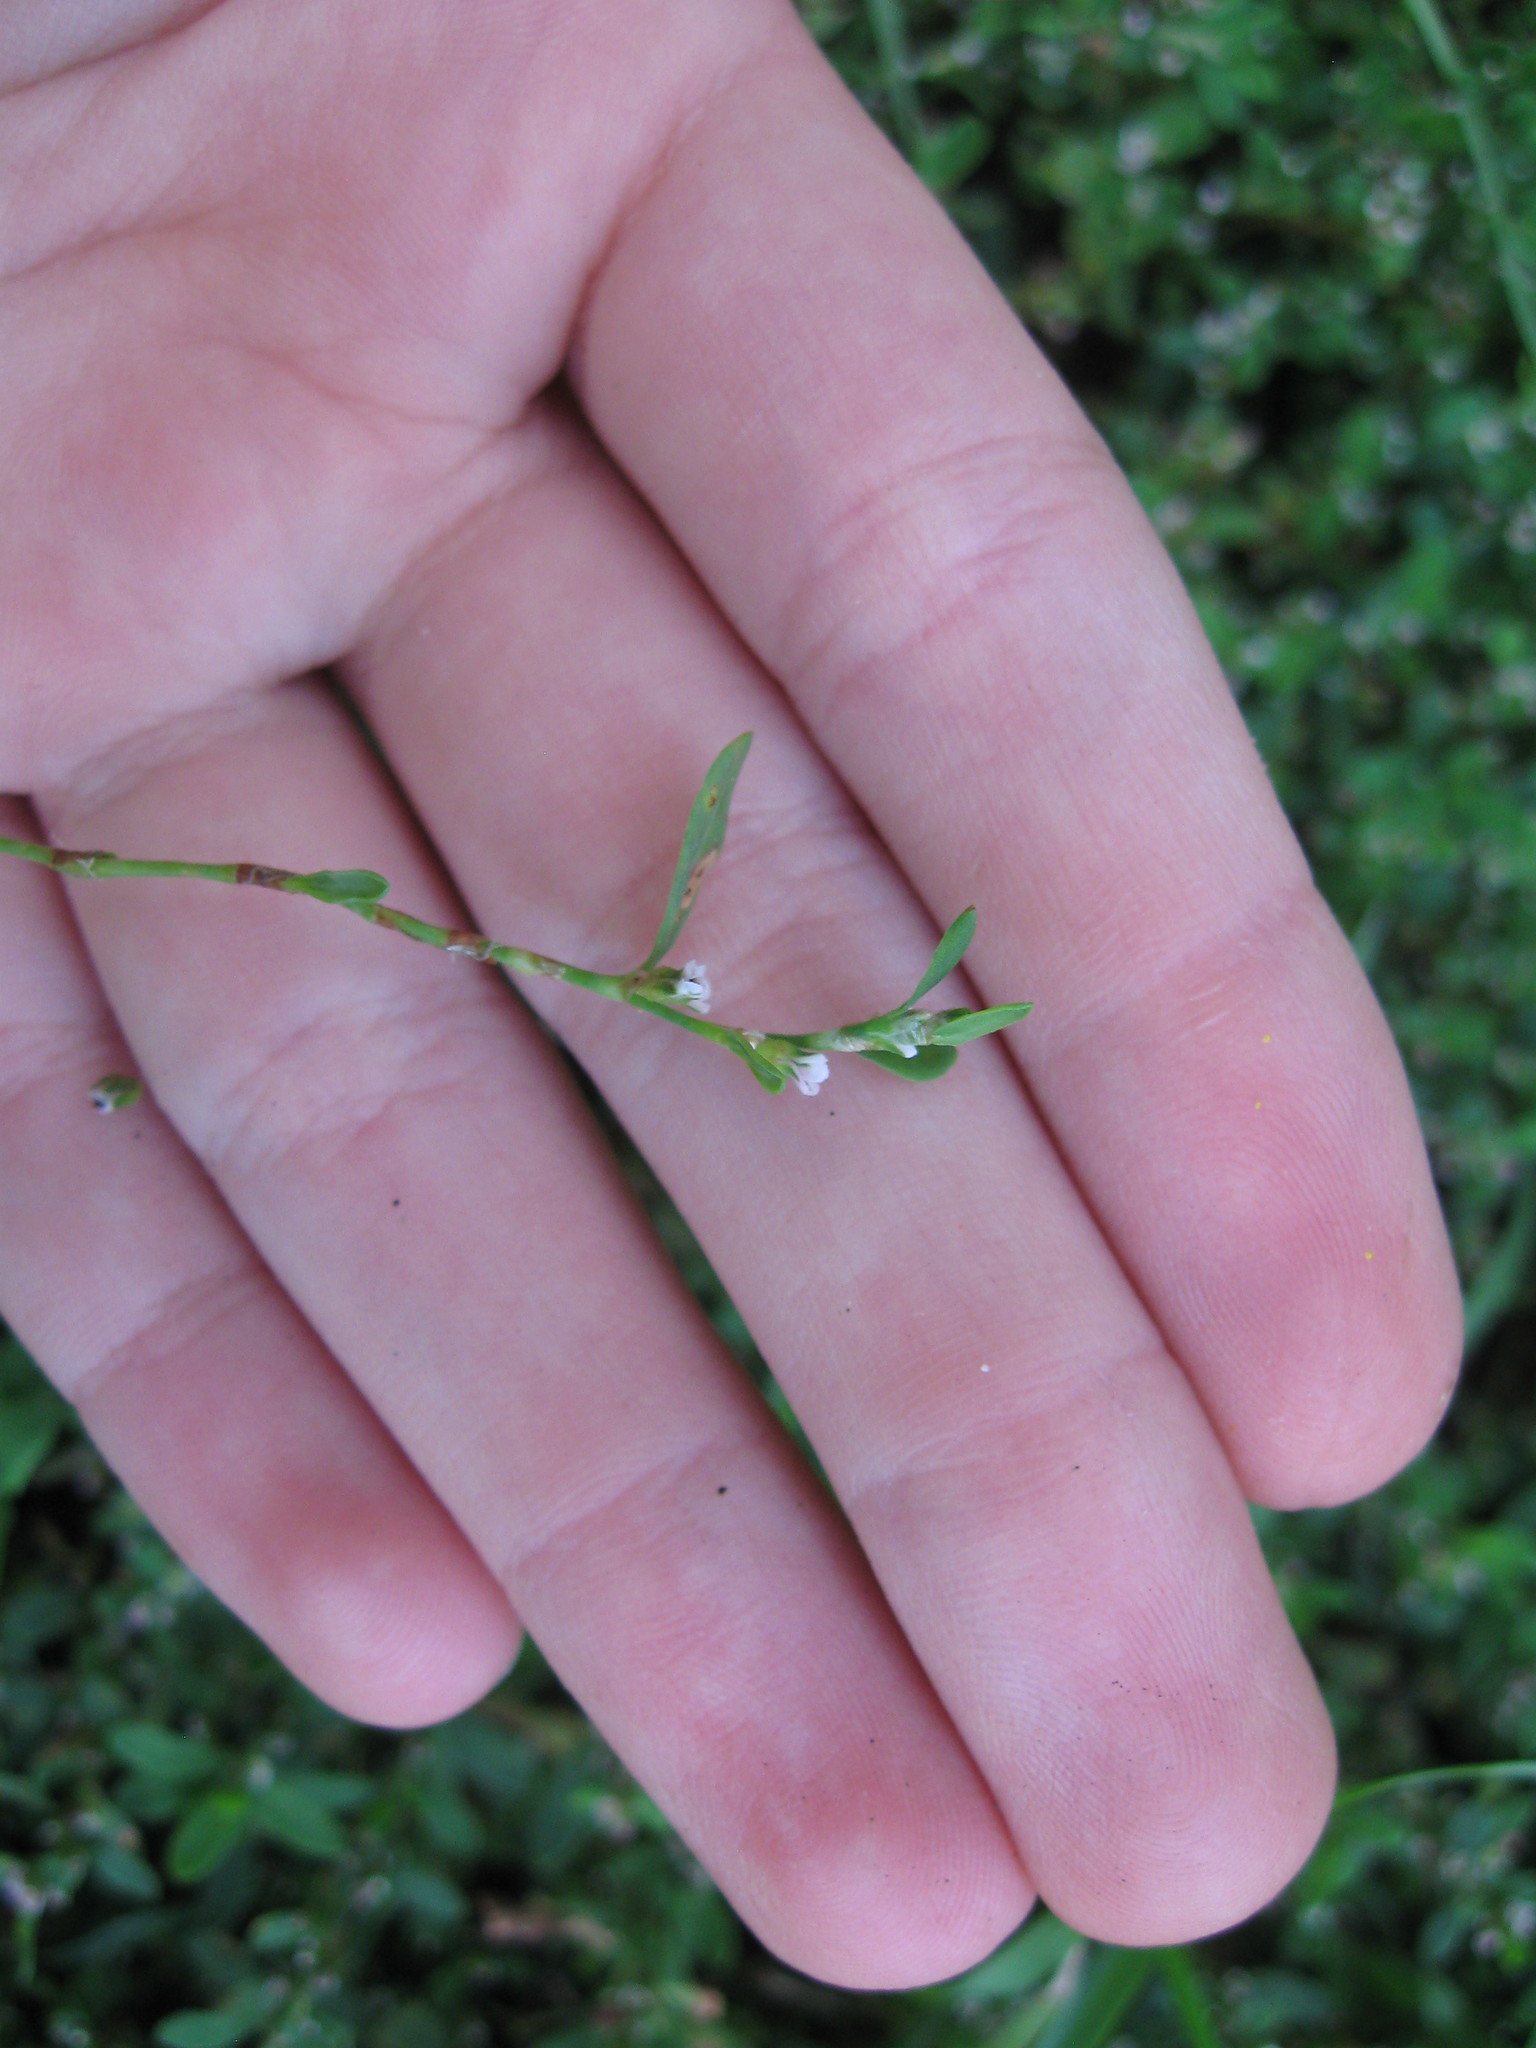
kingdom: Plantae
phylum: Tracheophyta
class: Magnoliopsida
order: Caryophyllales
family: Polygonaceae
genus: Polygonum
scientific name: Polygonum
